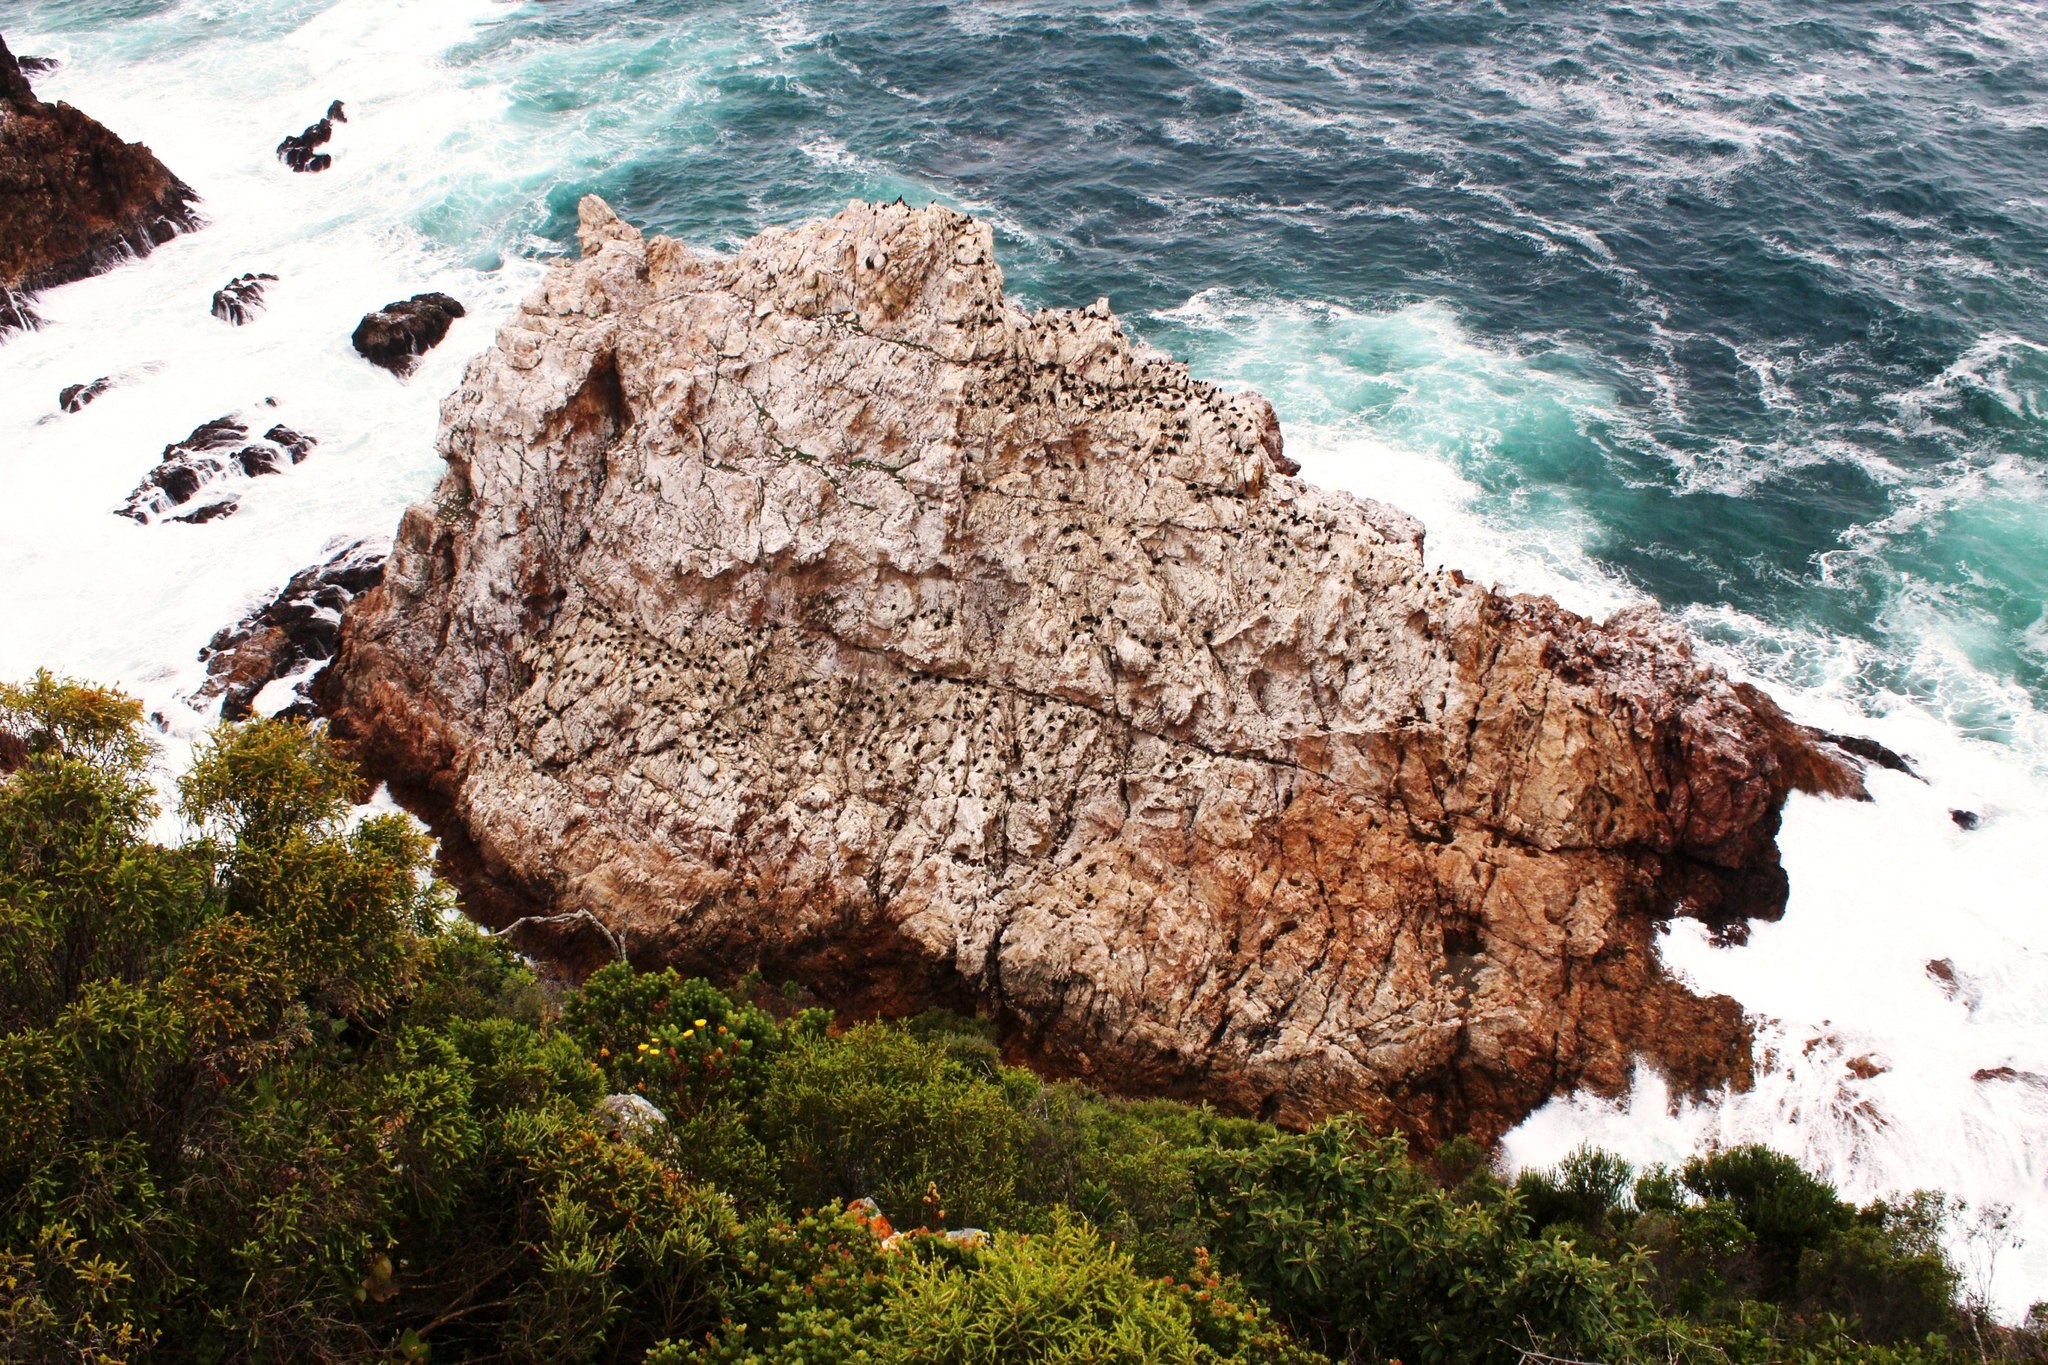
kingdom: Animalia
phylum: Chordata
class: Aves
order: Suliformes
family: Phalacrocoracidae
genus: Phalacrocorax
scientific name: Phalacrocorax capensis
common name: Cape cormorant
